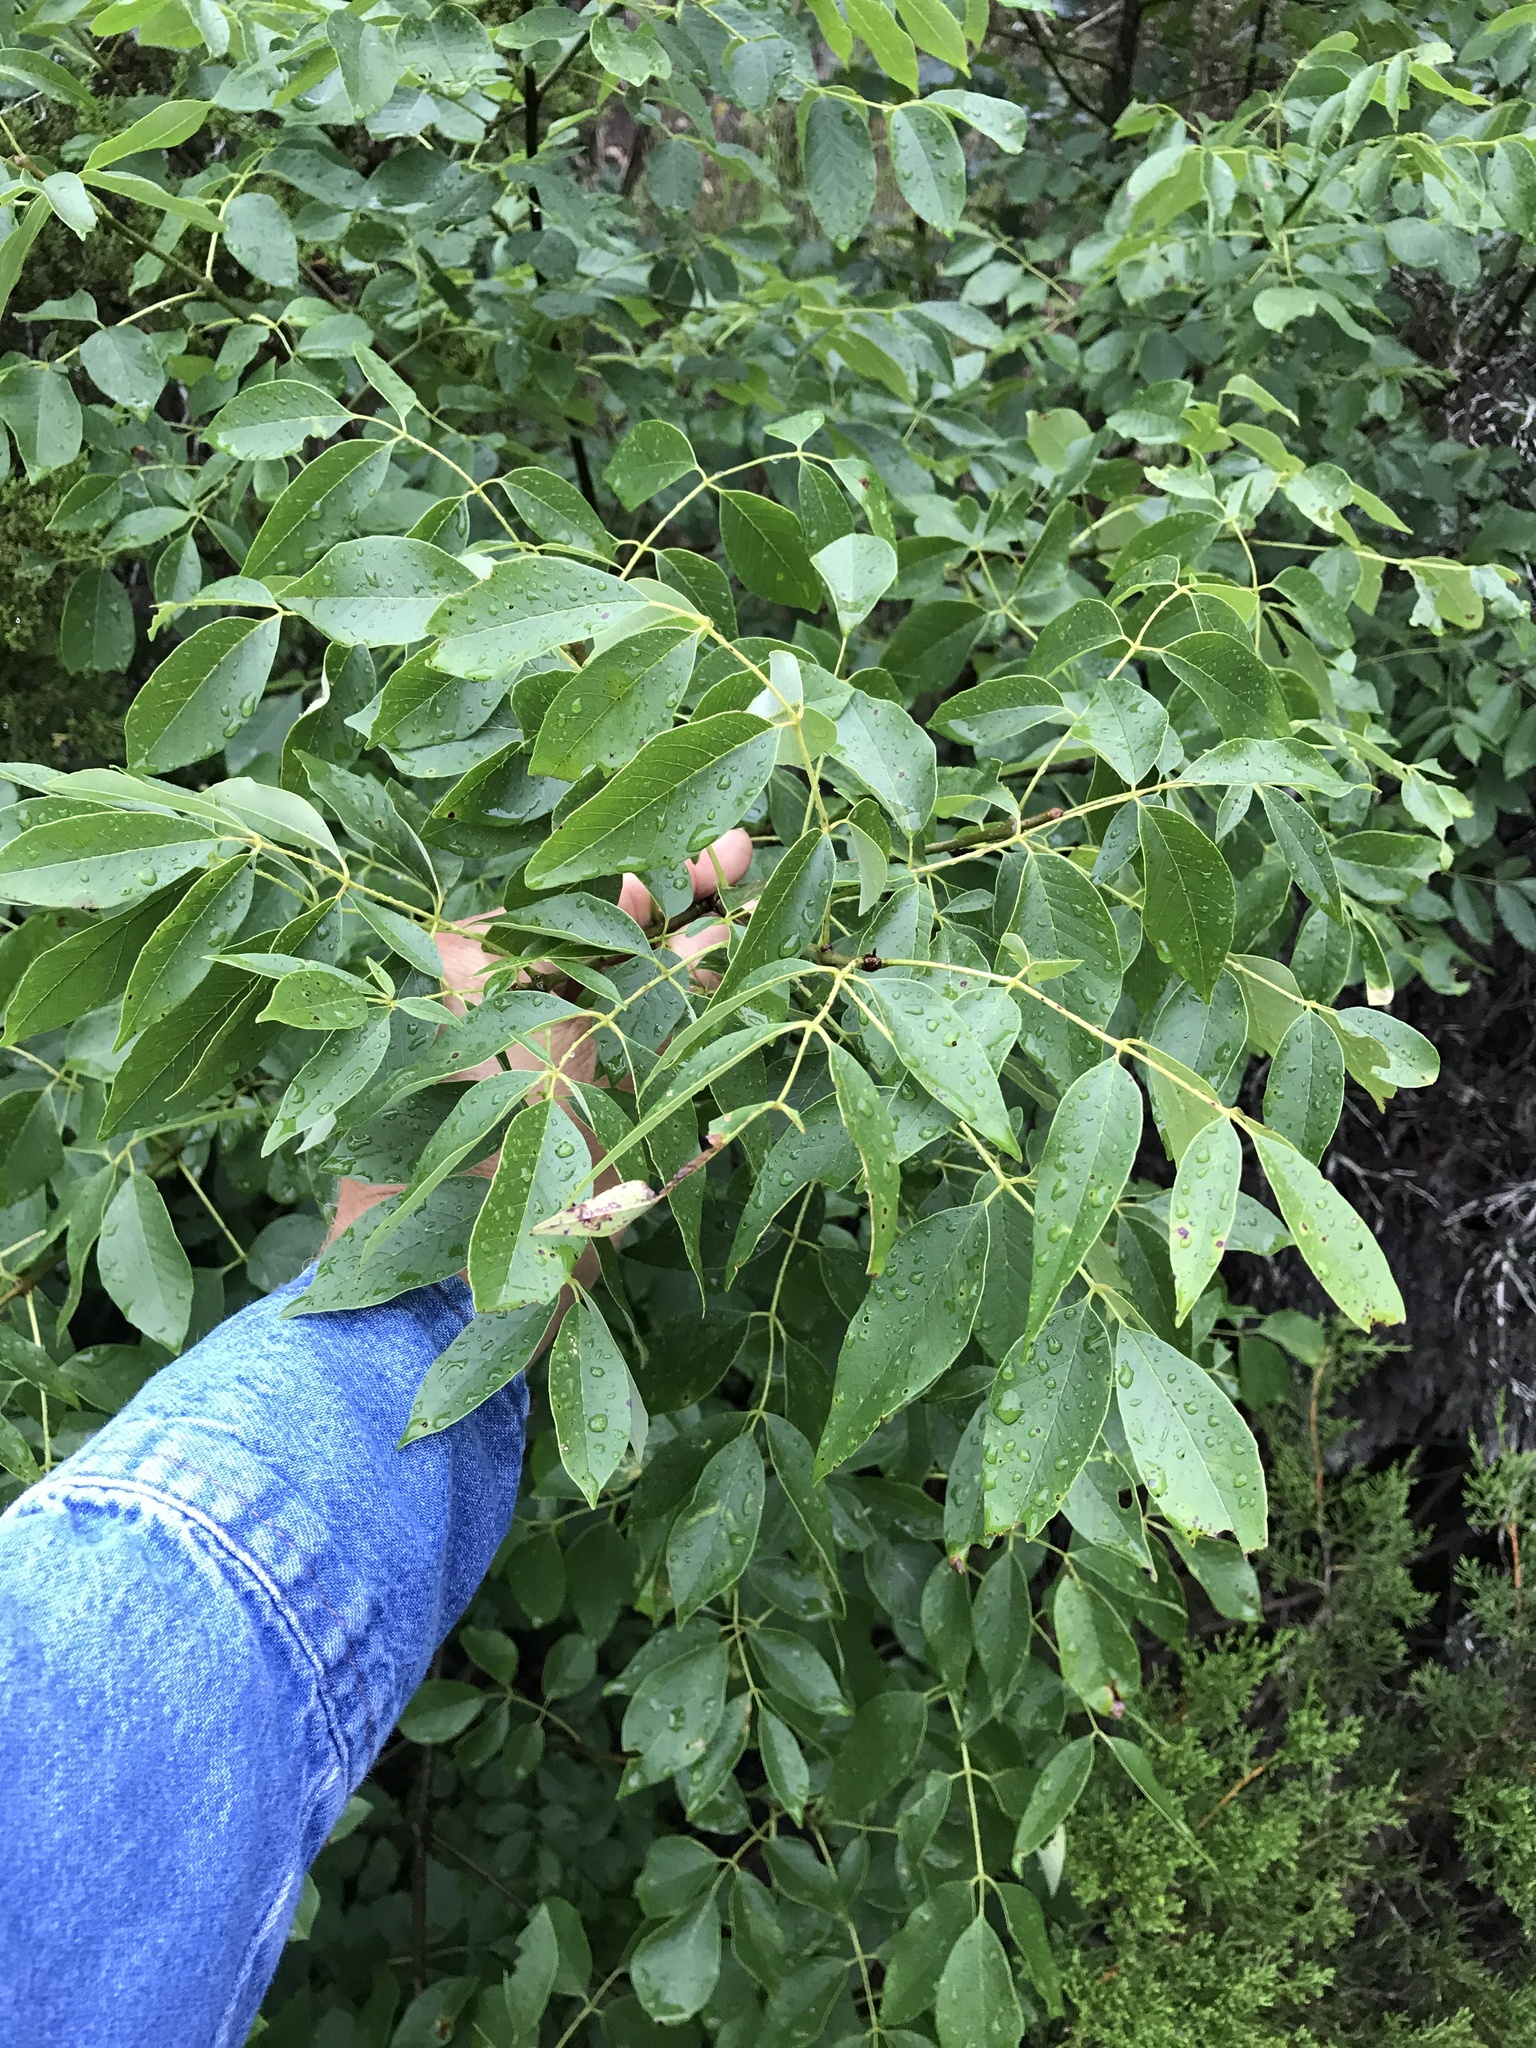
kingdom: Plantae
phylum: Tracheophyta
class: Magnoliopsida
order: Lamiales
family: Oleaceae
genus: Fraxinus
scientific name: Fraxinus albicans
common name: Texas ash
